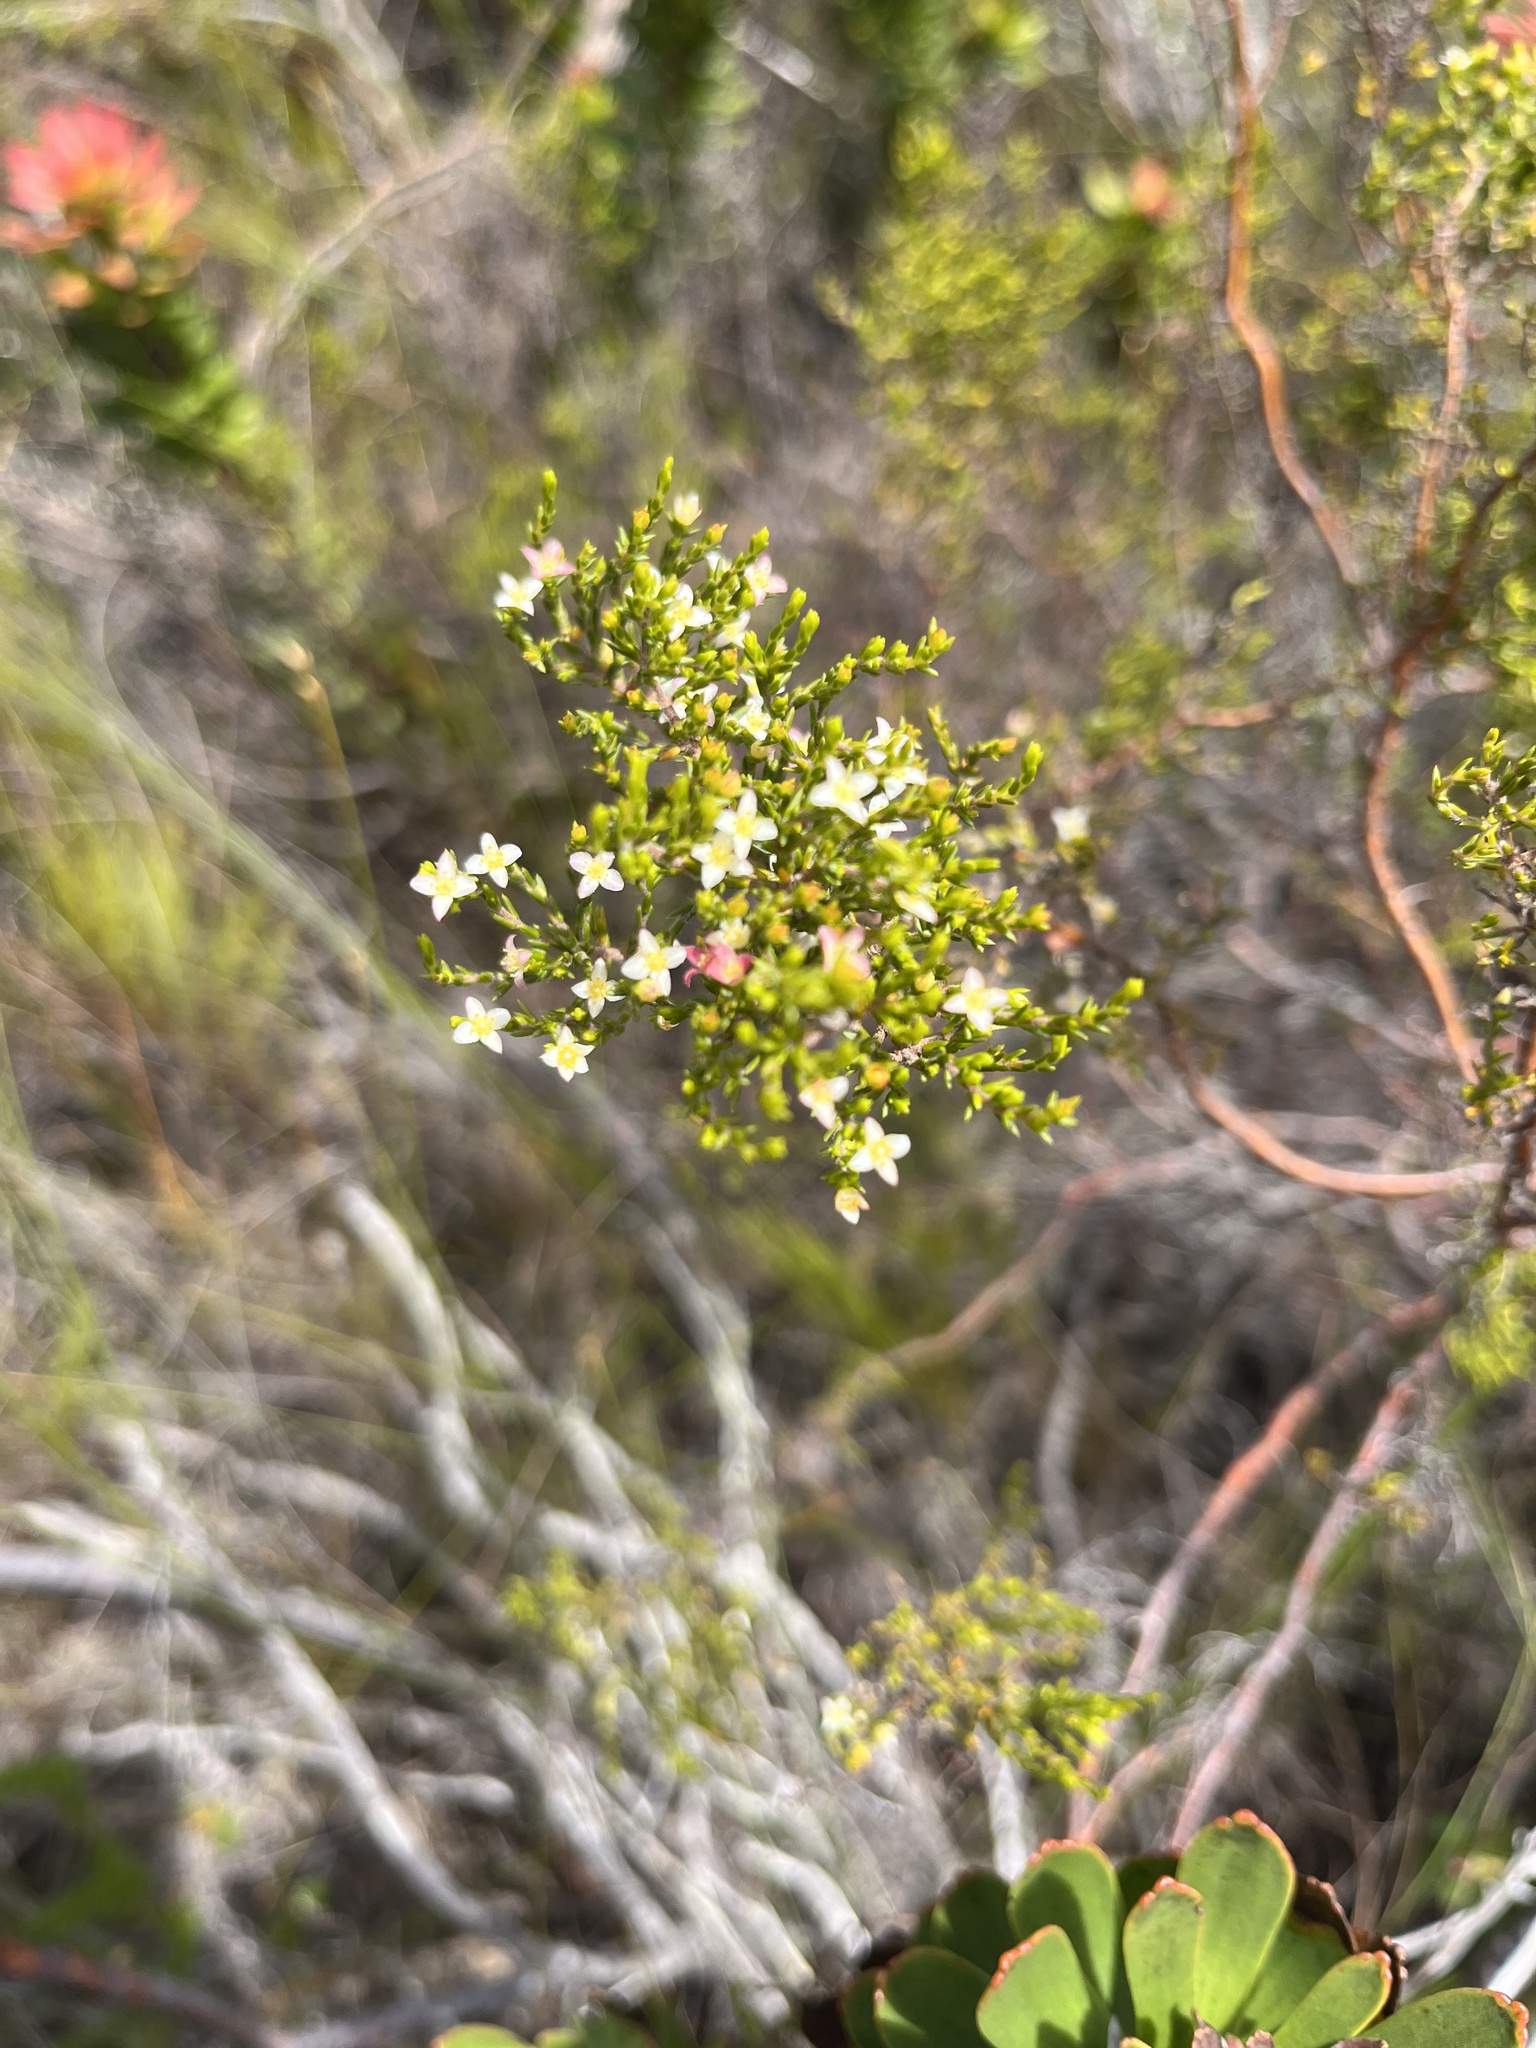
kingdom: Plantae
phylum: Tracheophyta
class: Magnoliopsida
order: Malvales
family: Thymelaeaceae
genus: Lachnaea
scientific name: Lachnaea axillaris
